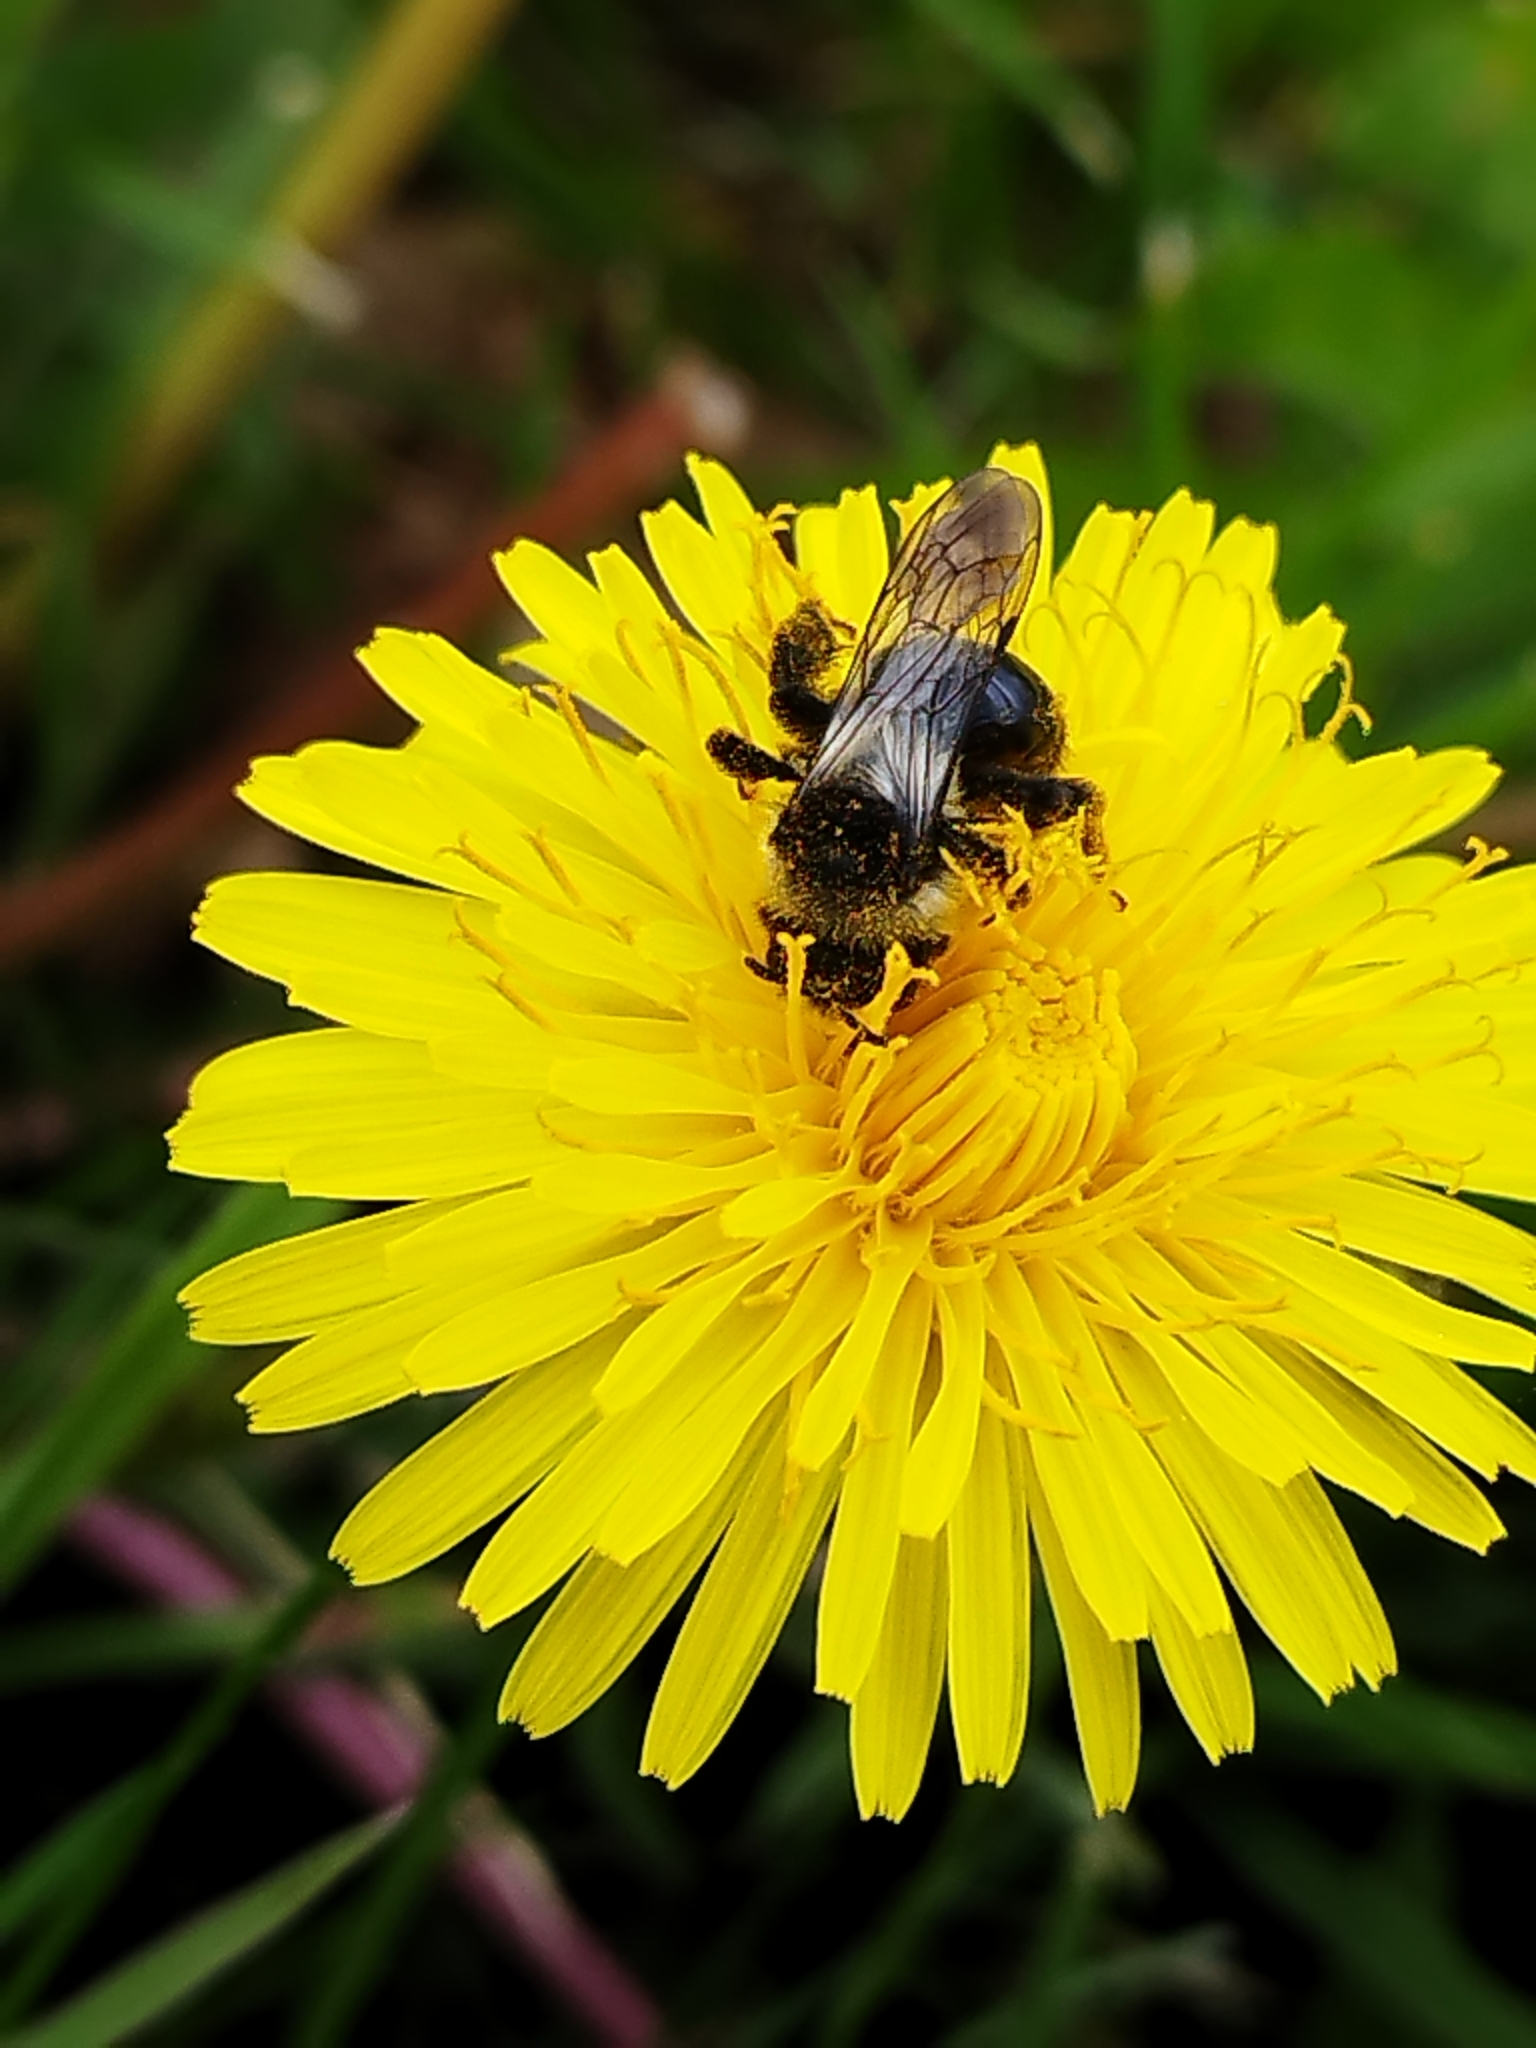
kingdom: Animalia
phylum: Arthropoda
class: Insecta
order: Hymenoptera
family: Andrenidae
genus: Andrena
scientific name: Andrena cineraria
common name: Ashy mining bee
